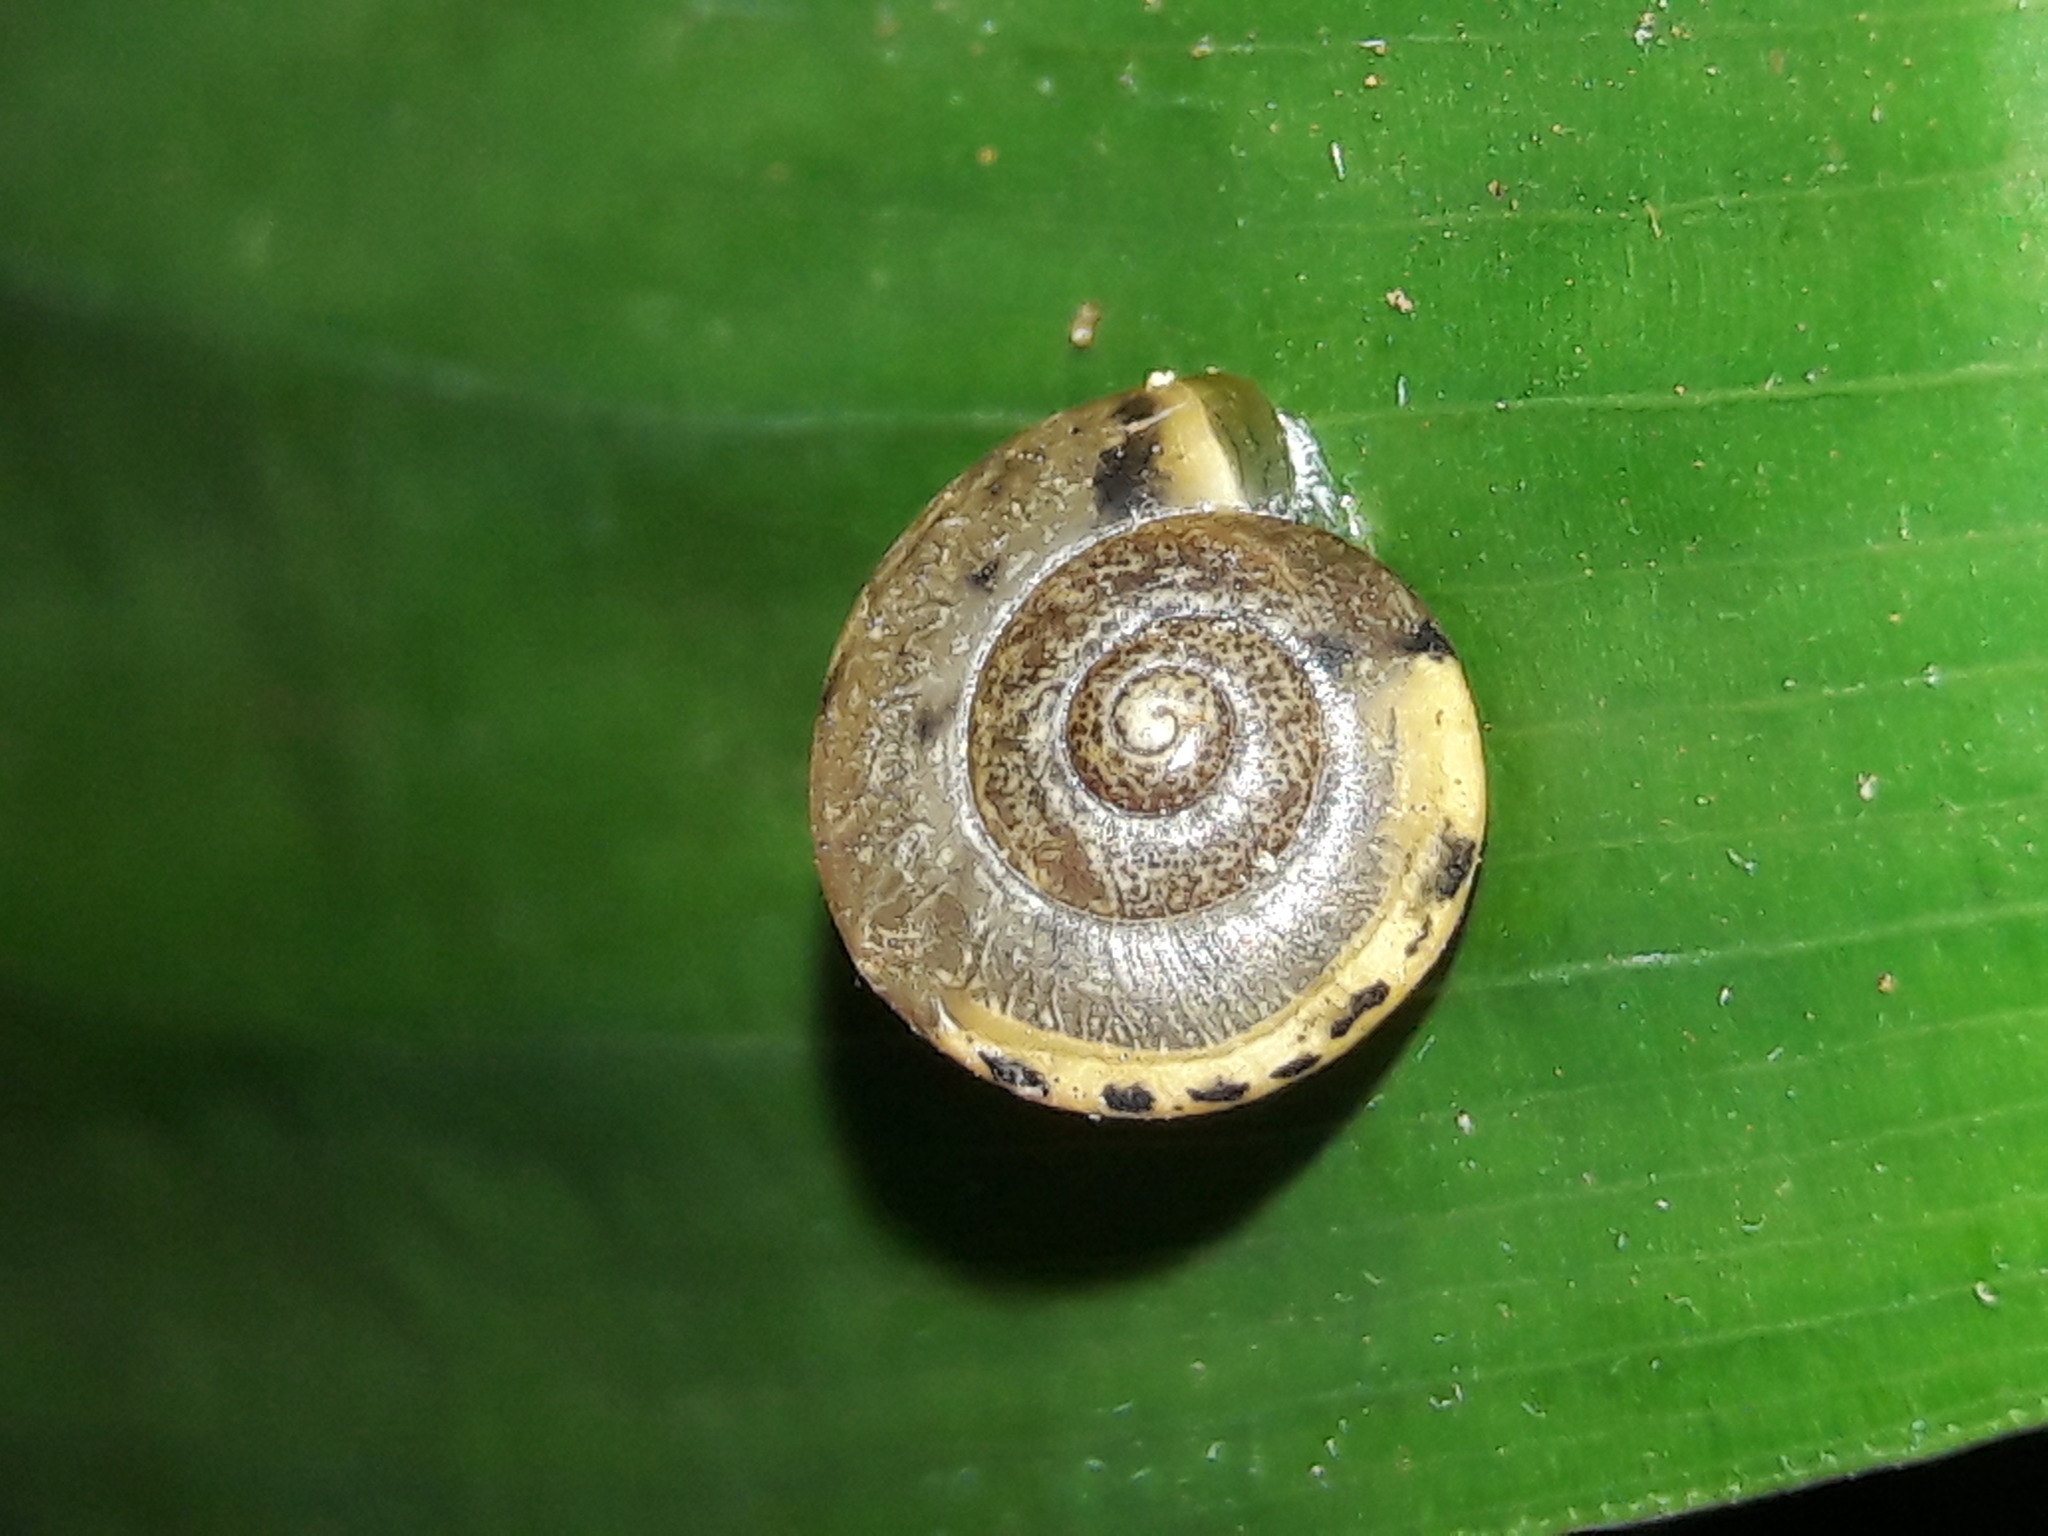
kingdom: Animalia
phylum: Mollusca
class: Gastropoda
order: Stylommatophora
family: Camaenidae
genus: Bradybaena
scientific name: Bradybaena similaris
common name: Asian trampsnail
